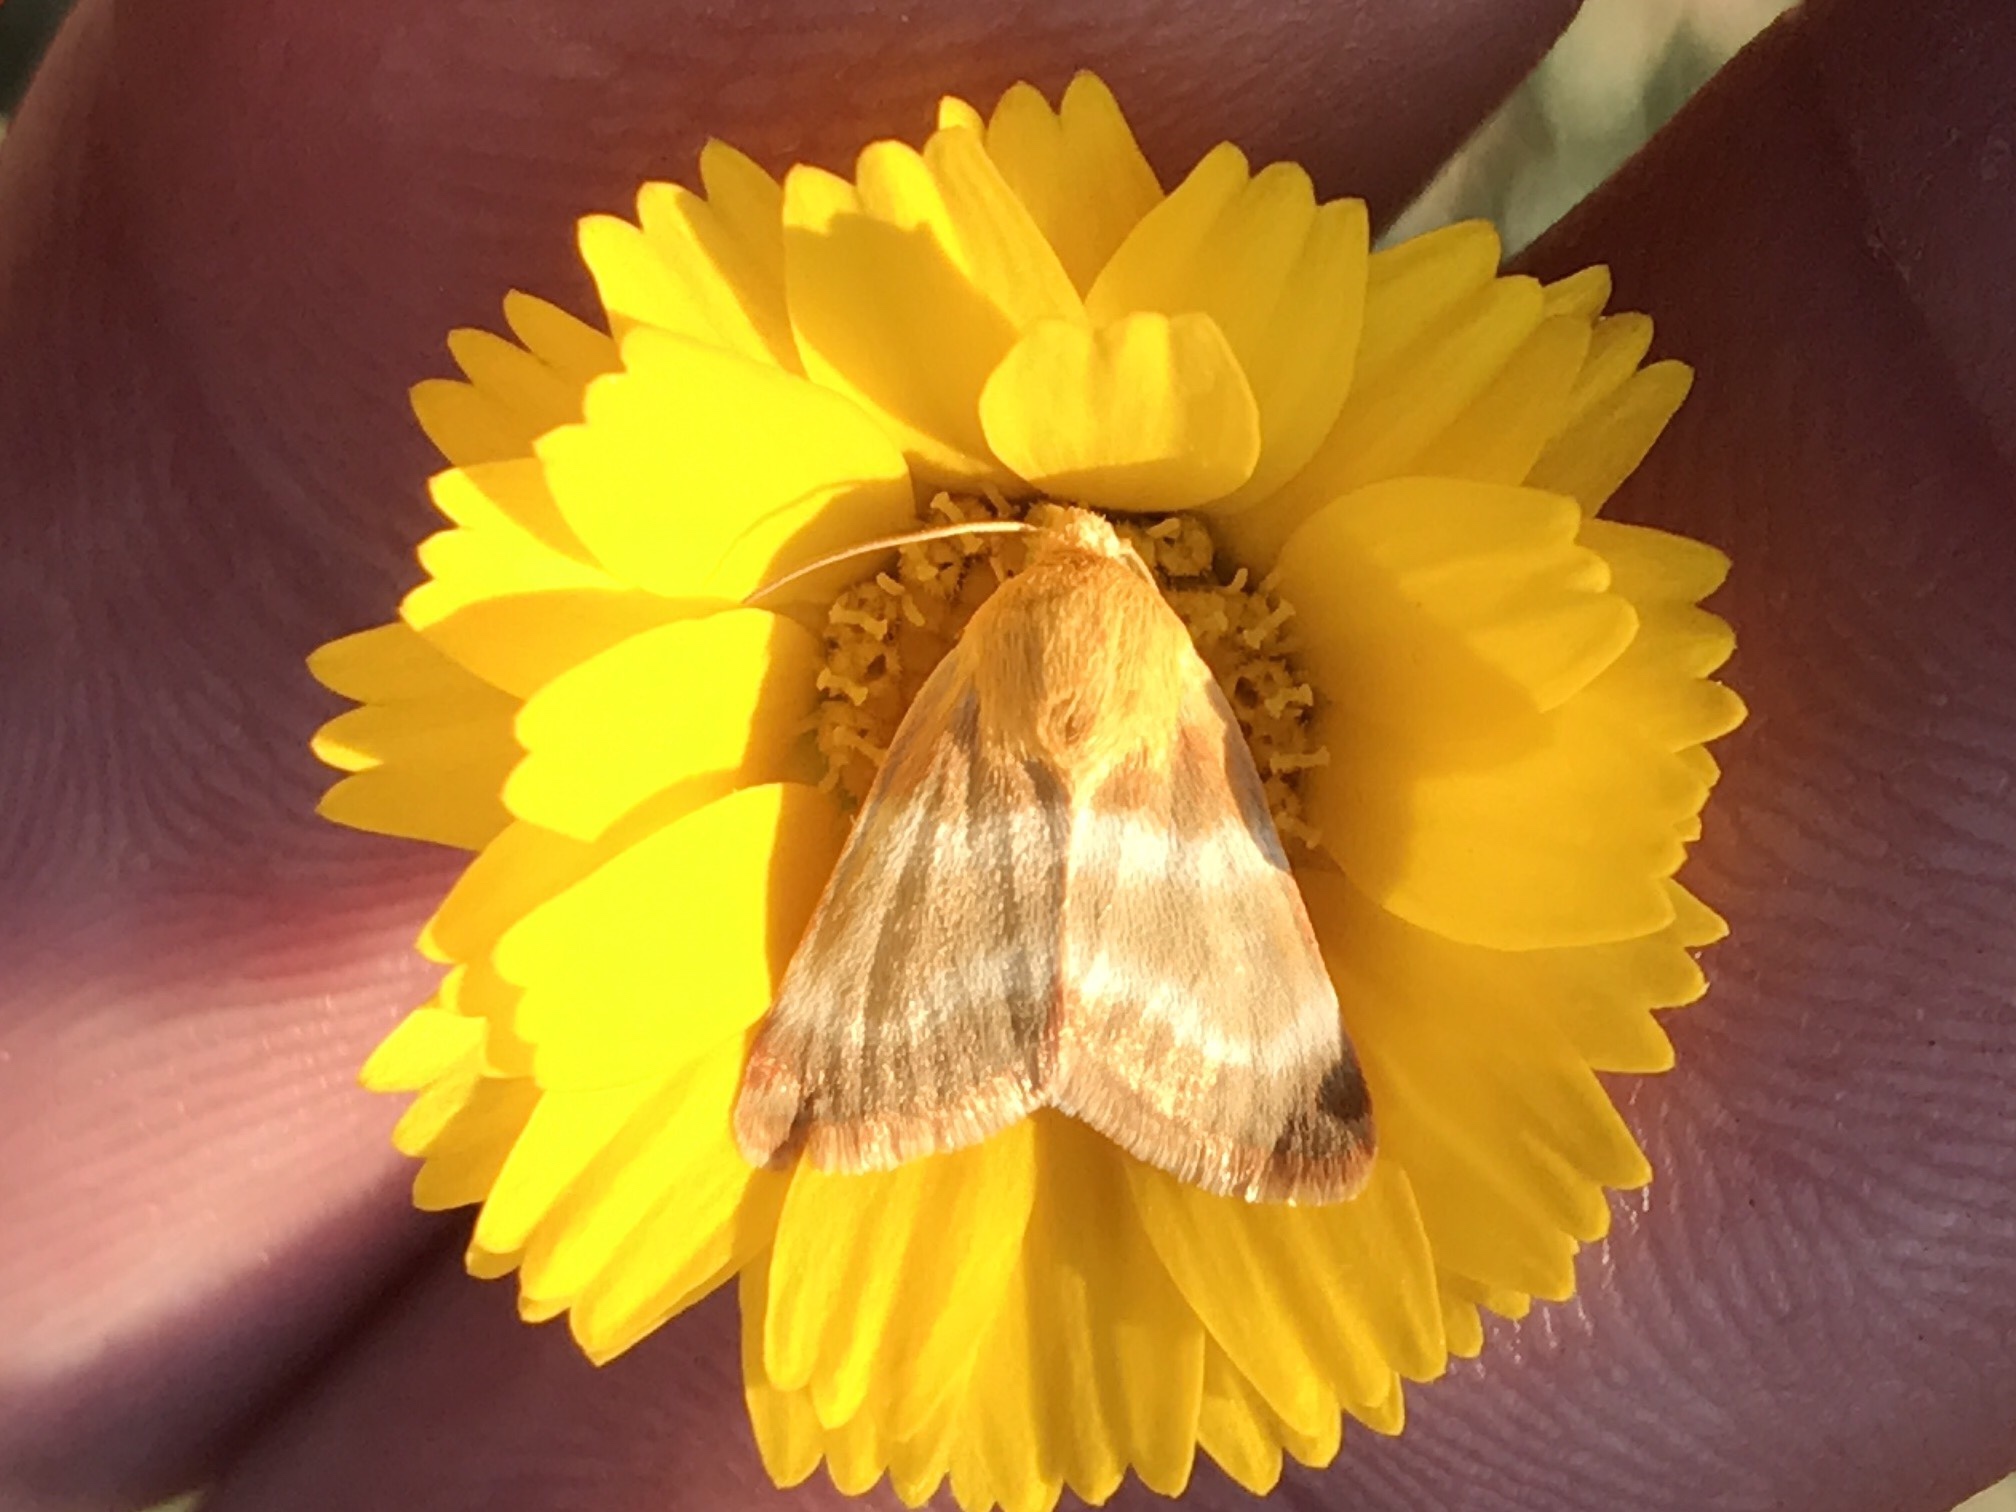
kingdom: Animalia
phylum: Arthropoda
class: Insecta
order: Lepidoptera
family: Noctuidae
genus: Schinia
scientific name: Schinia miniana
